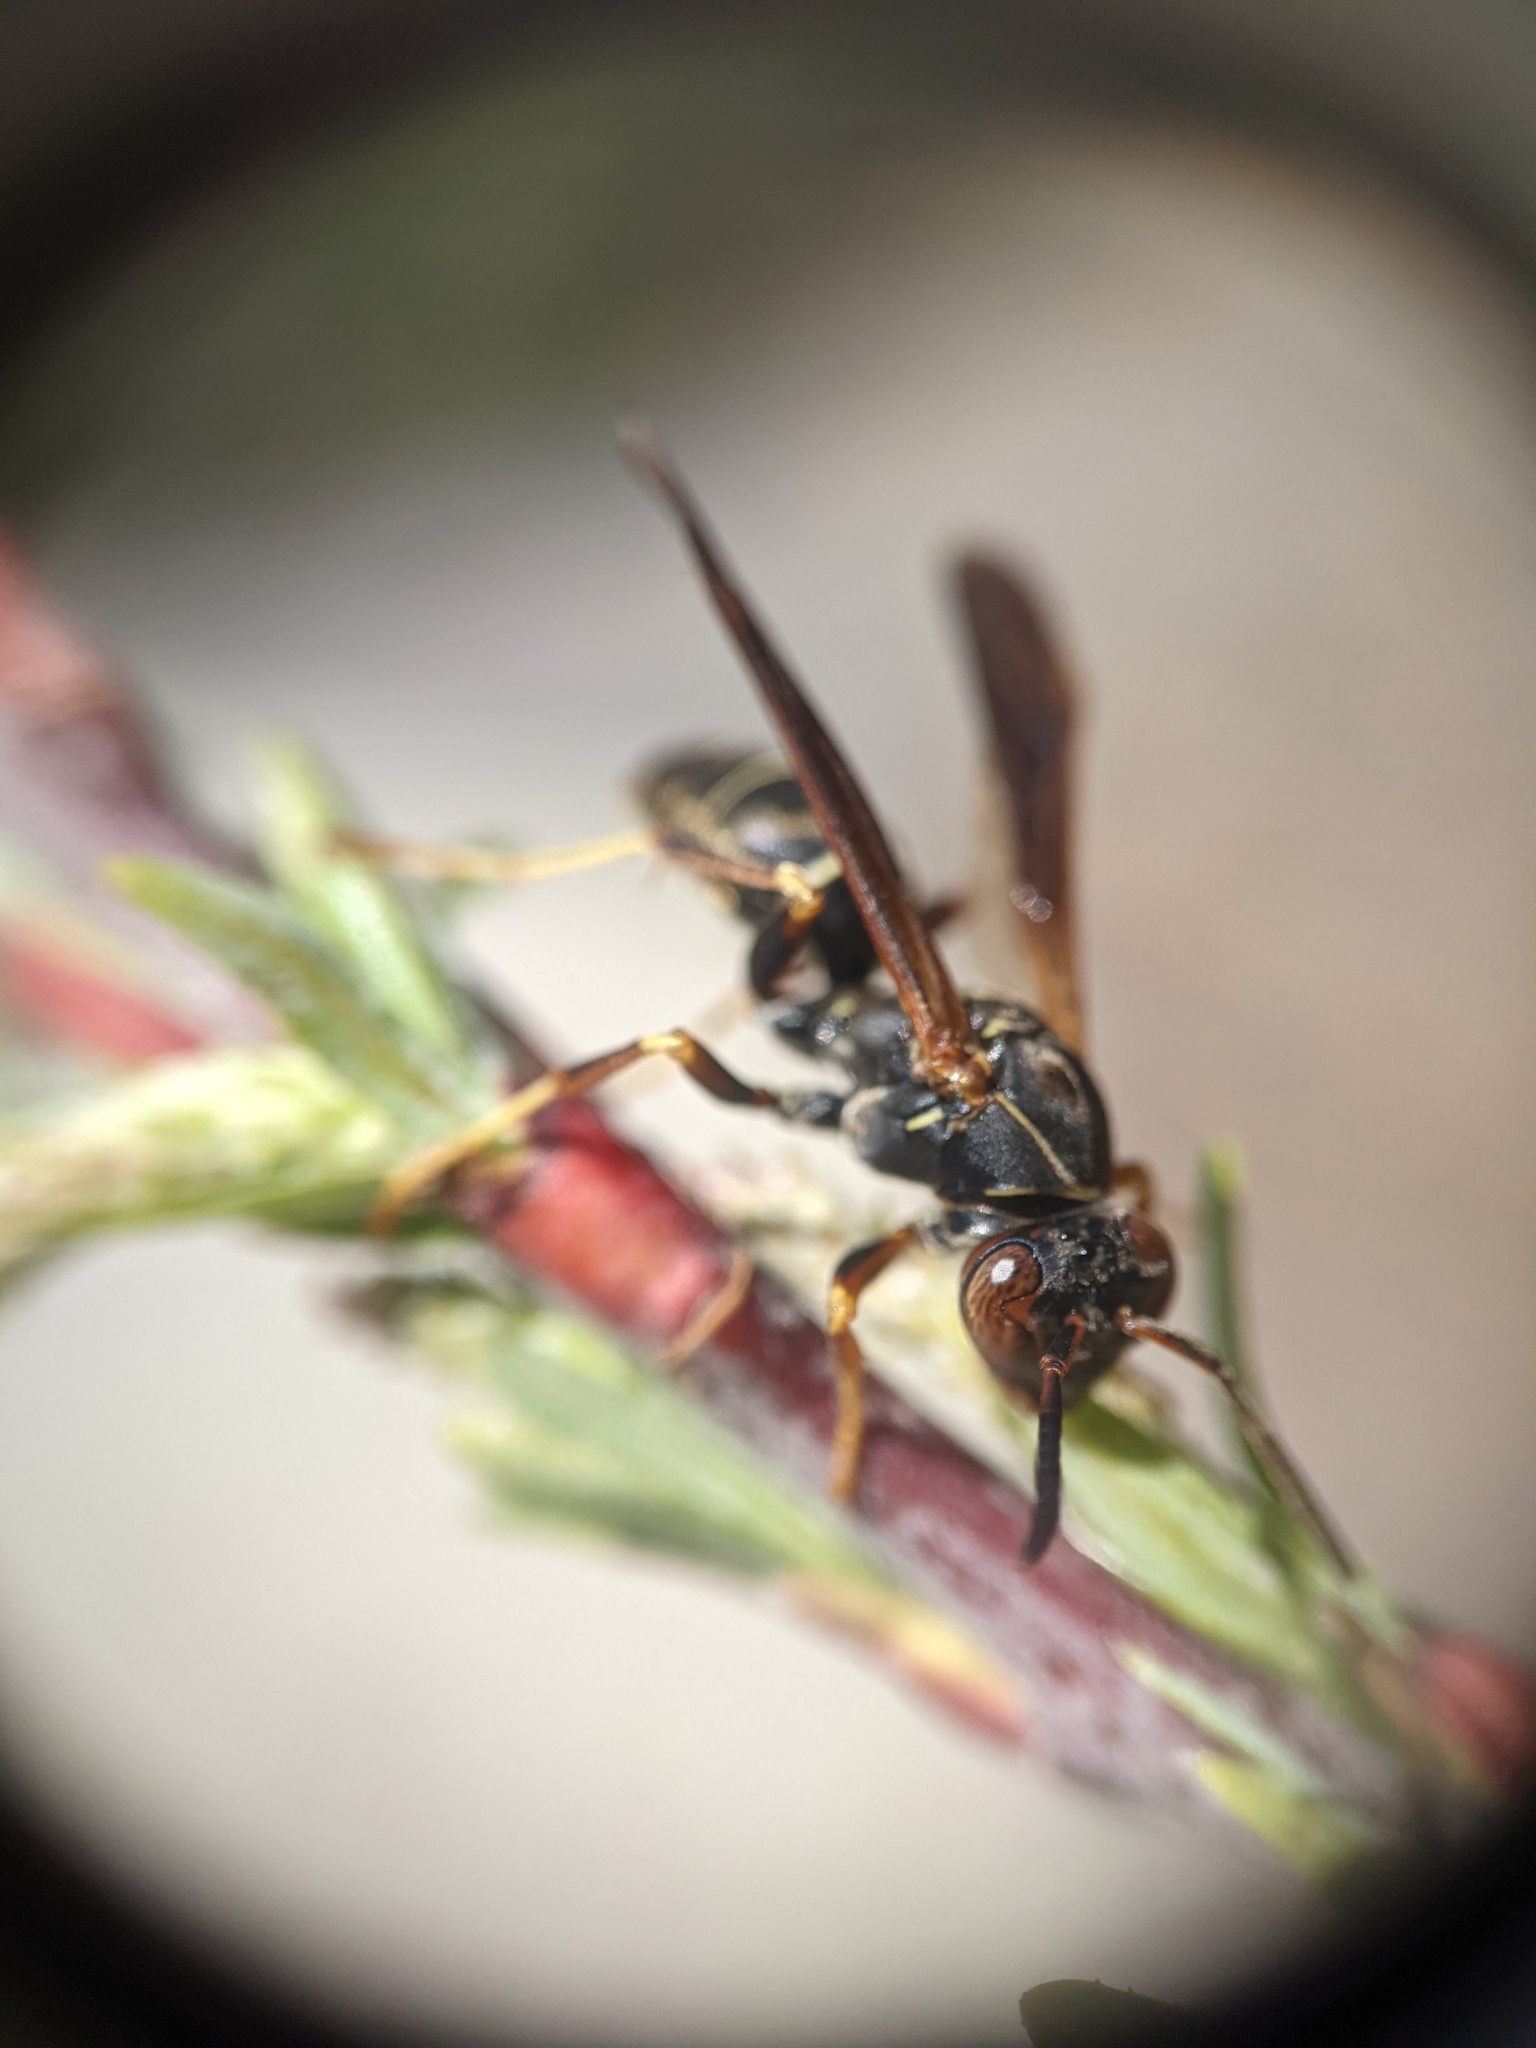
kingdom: Animalia
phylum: Arthropoda
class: Insecta
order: Hymenoptera
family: Eumenidae
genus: Polistes
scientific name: Polistes fuscatus
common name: Dark paper wasp
